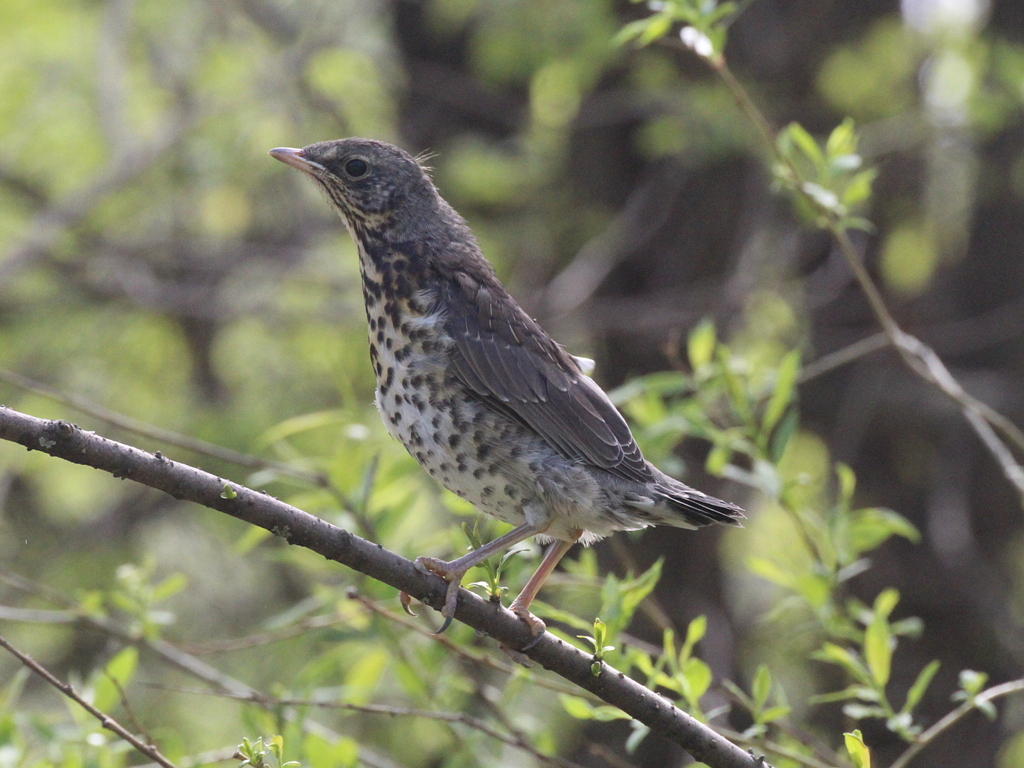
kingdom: Animalia
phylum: Chordata
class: Aves
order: Passeriformes
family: Turdidae
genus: Turdus
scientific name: Turdus pilaris
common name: Fieldfare
